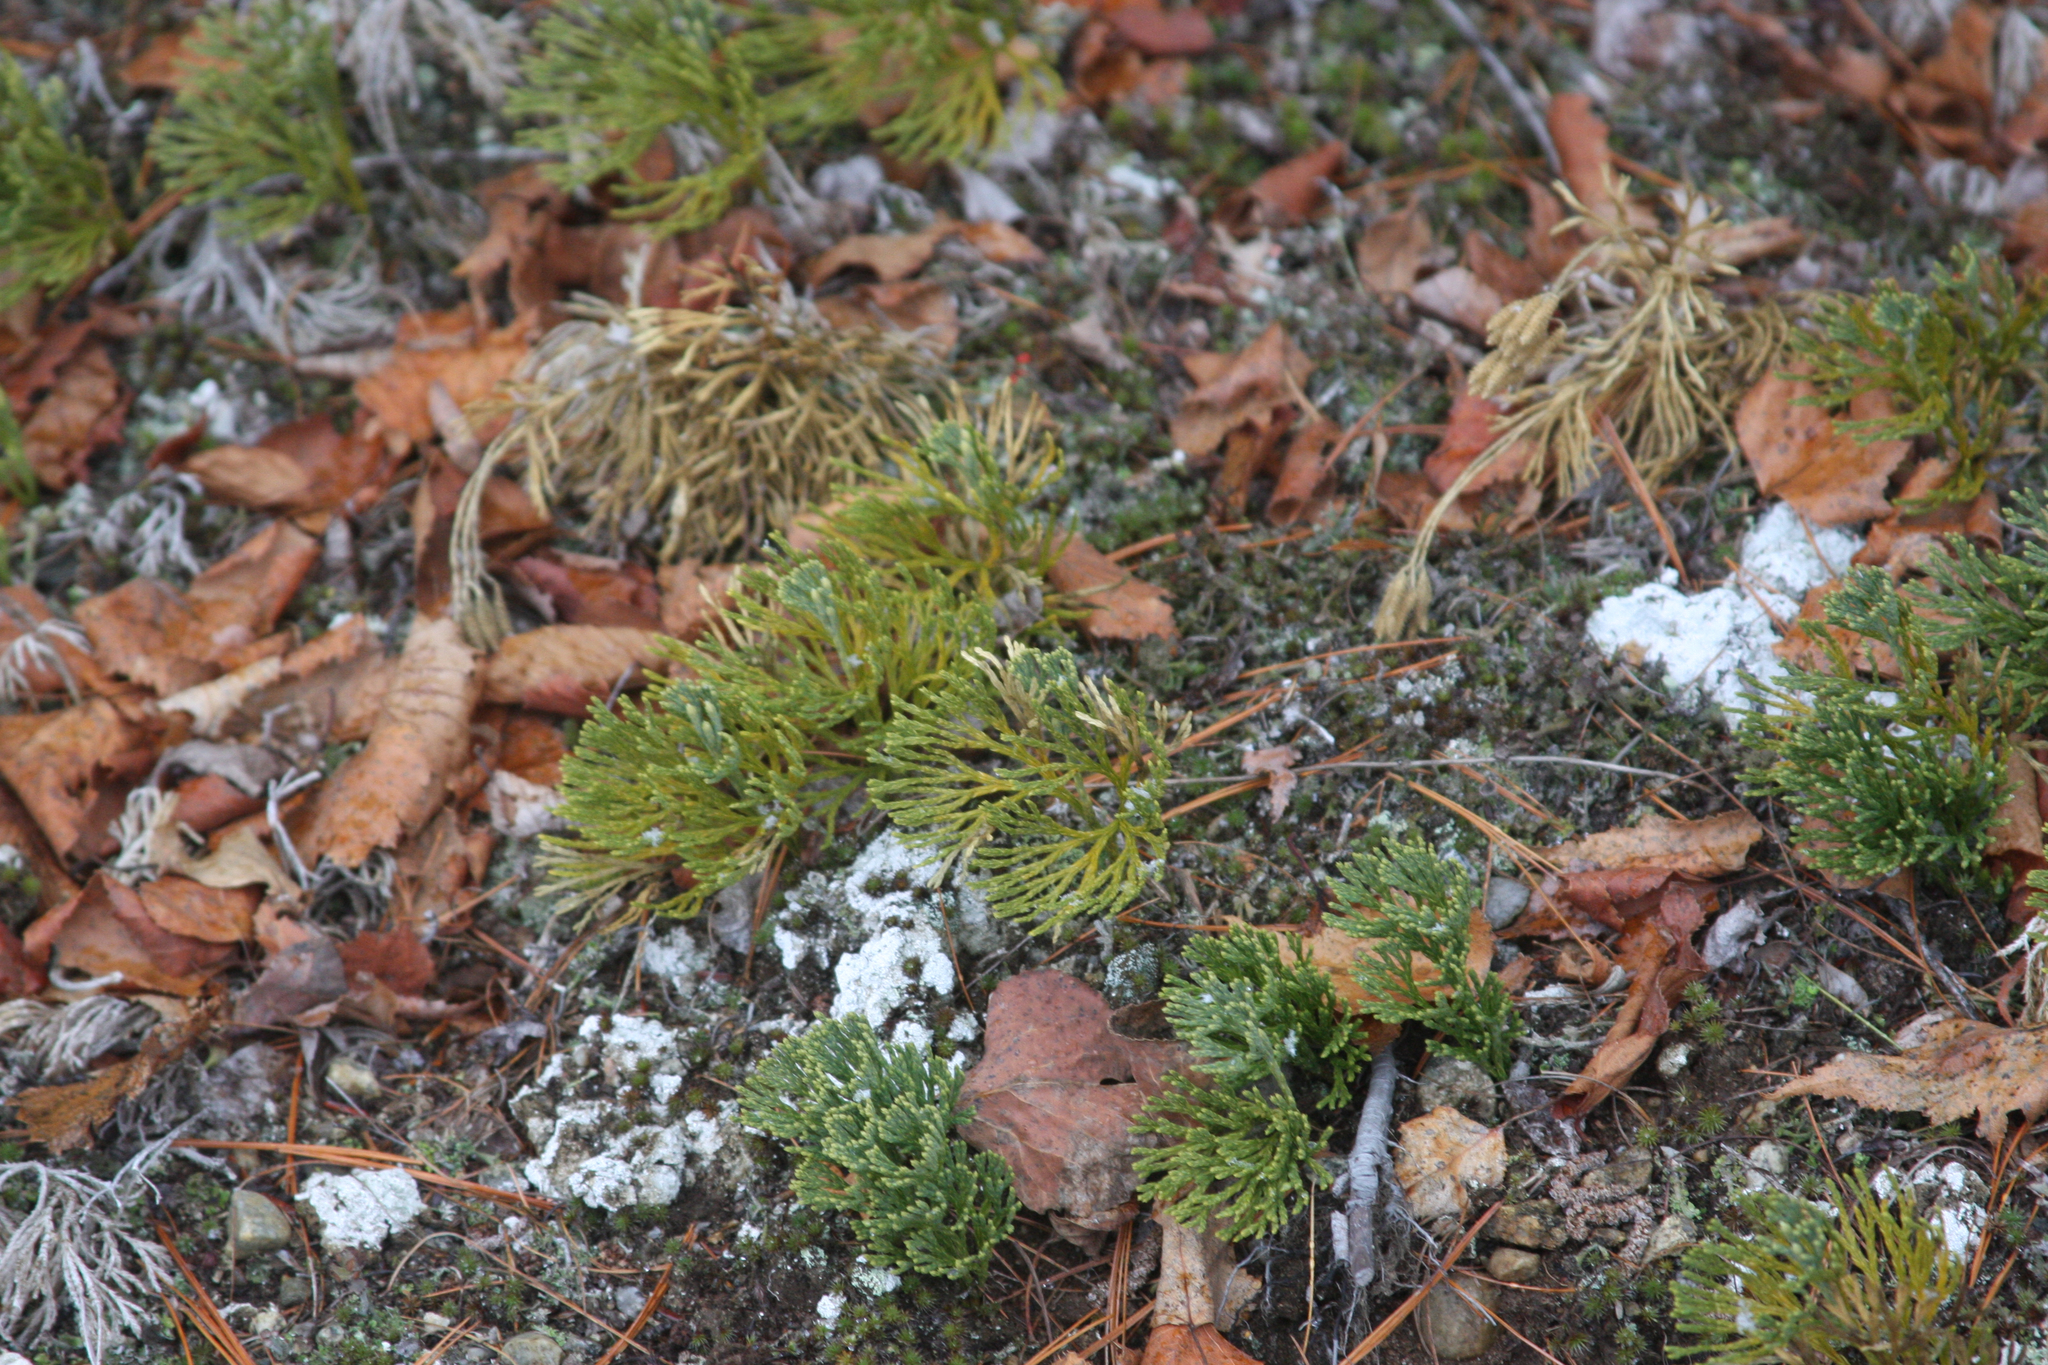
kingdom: Plantae
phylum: Tracheophyta
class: Lycopodiopsida
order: Lycopodiales
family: Lycopodiaceae
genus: Diphasiastrum
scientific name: Diphasiastrum tristachyum
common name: Blue ground-cedar
